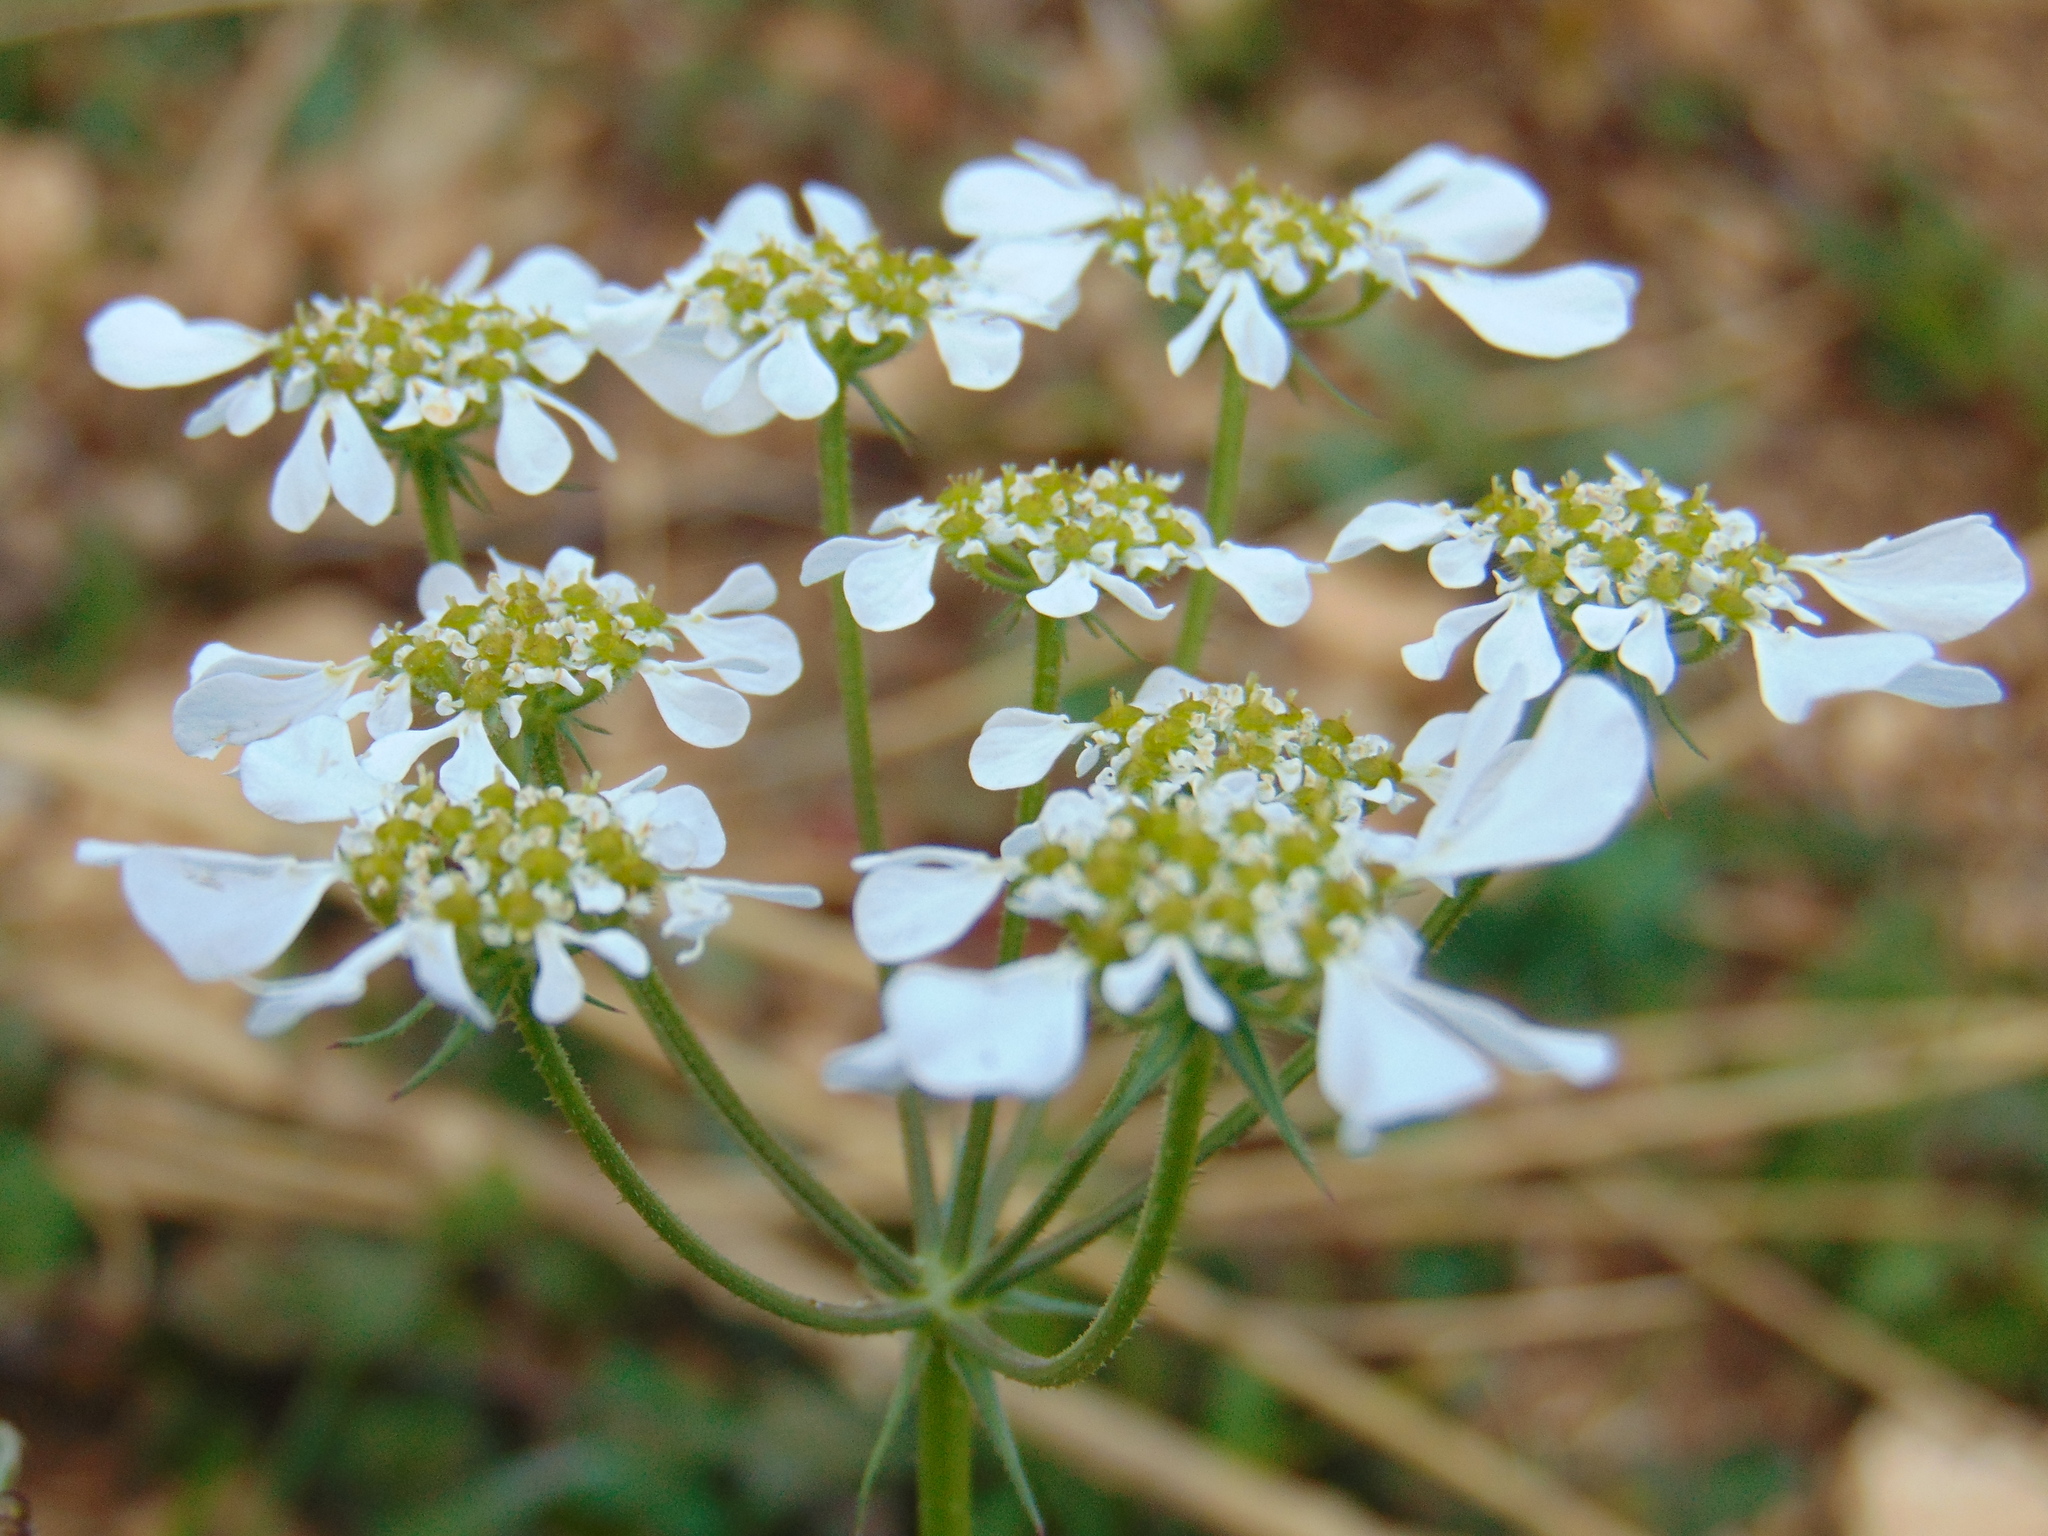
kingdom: Plantae
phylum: Tracheophyta
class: Magnoliopsida
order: Apiales
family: Apiaceae
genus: Tordylium
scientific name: Tordylium apulum
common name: Mediterranean hartwort
